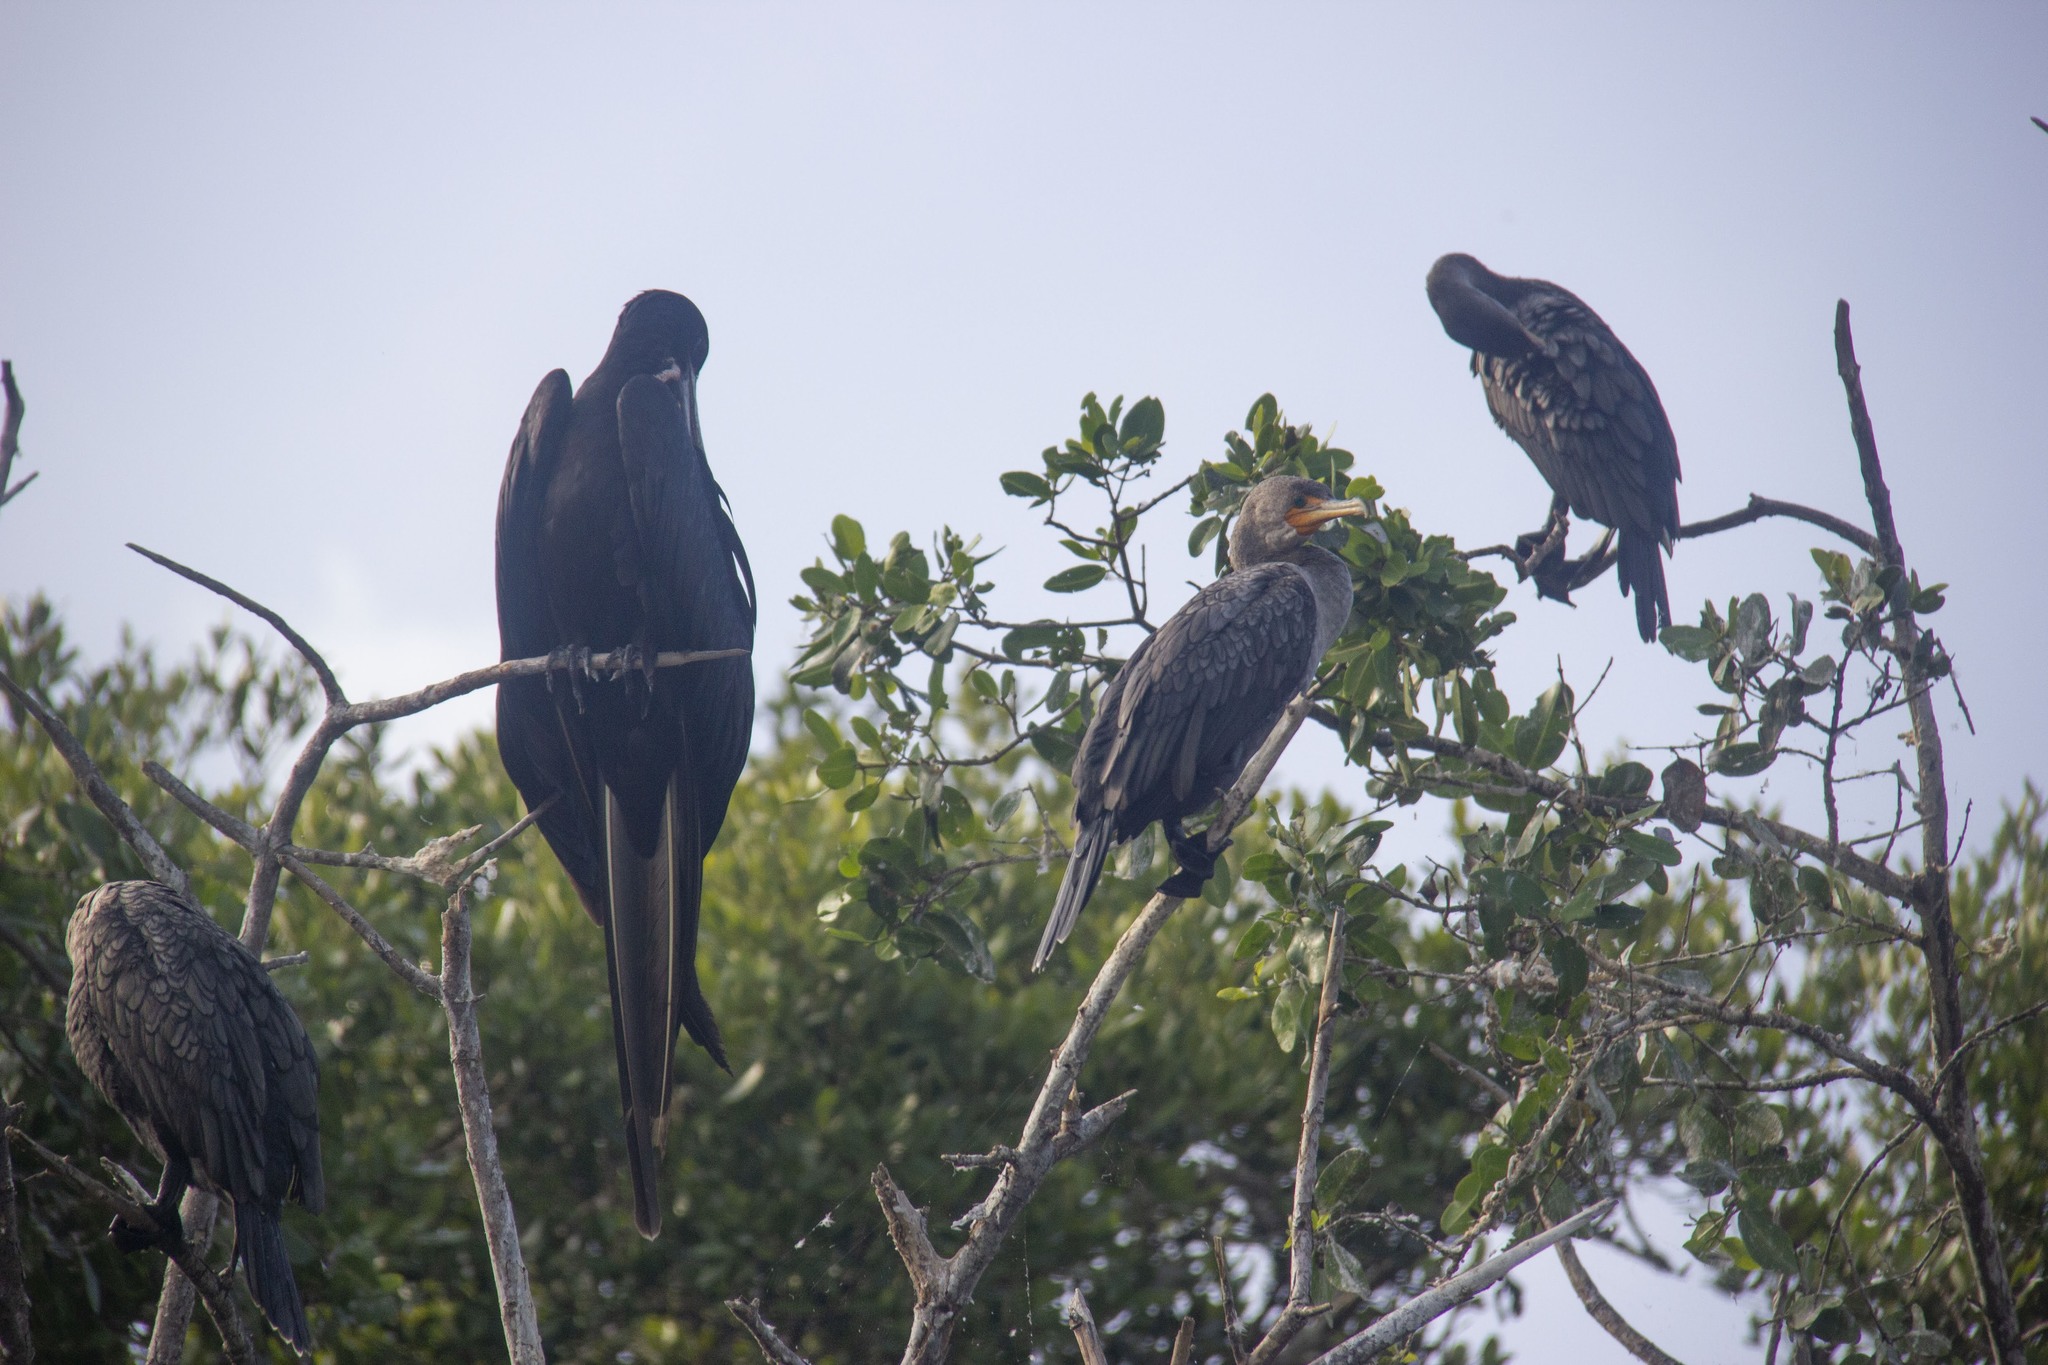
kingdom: Animalia
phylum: Chordata
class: Aves
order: Suliformes
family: Phalacrocoracidae
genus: Phalacrocorax
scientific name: Phalacrocorax auritus
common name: Double-crested cormorant
